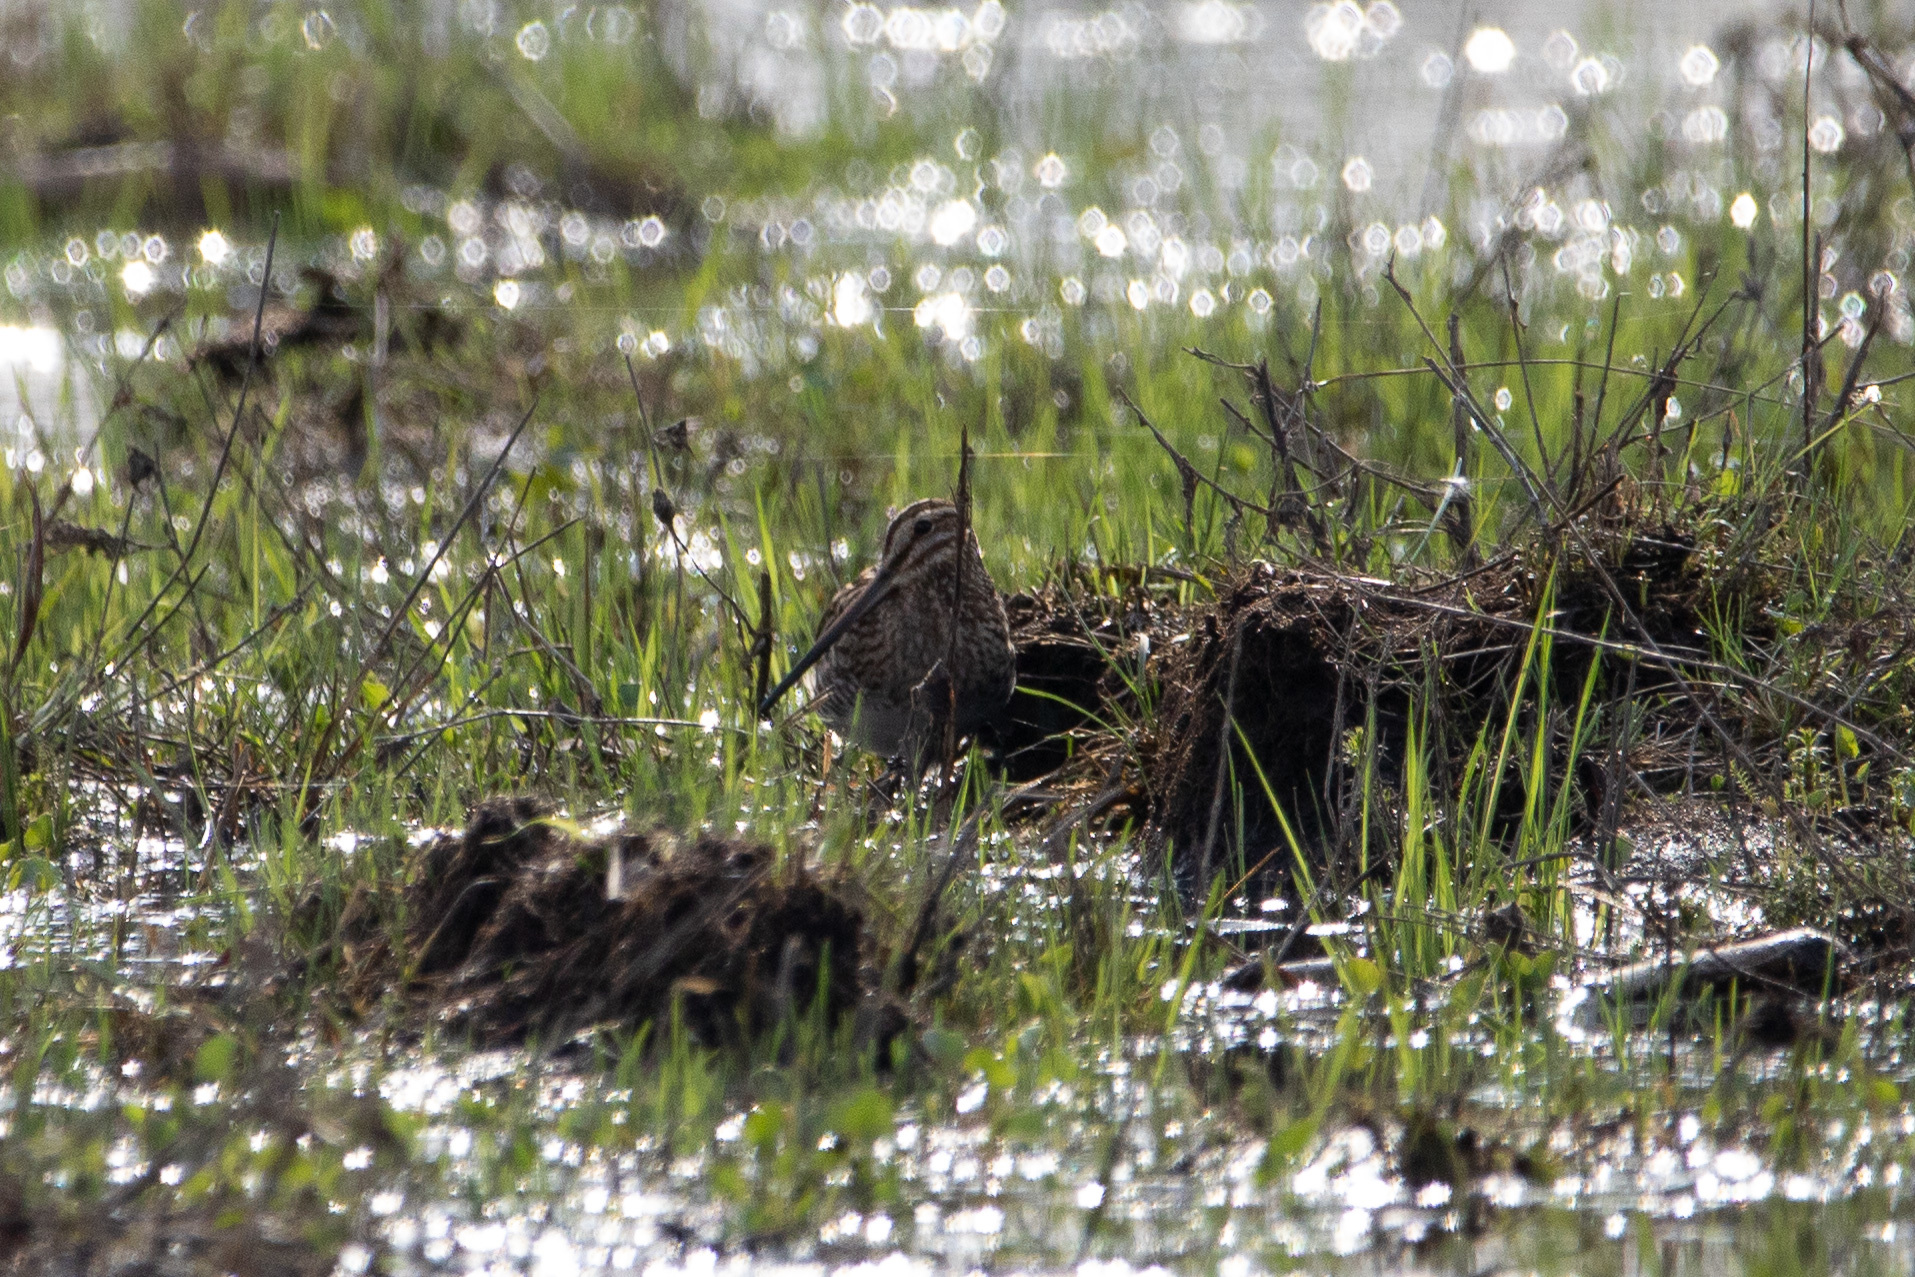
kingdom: Animalia
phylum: Chordata
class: Aves
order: Charadriiformes
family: Scolopacidae
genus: Gallinago
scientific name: Gallinago gallinago
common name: Common snipe
